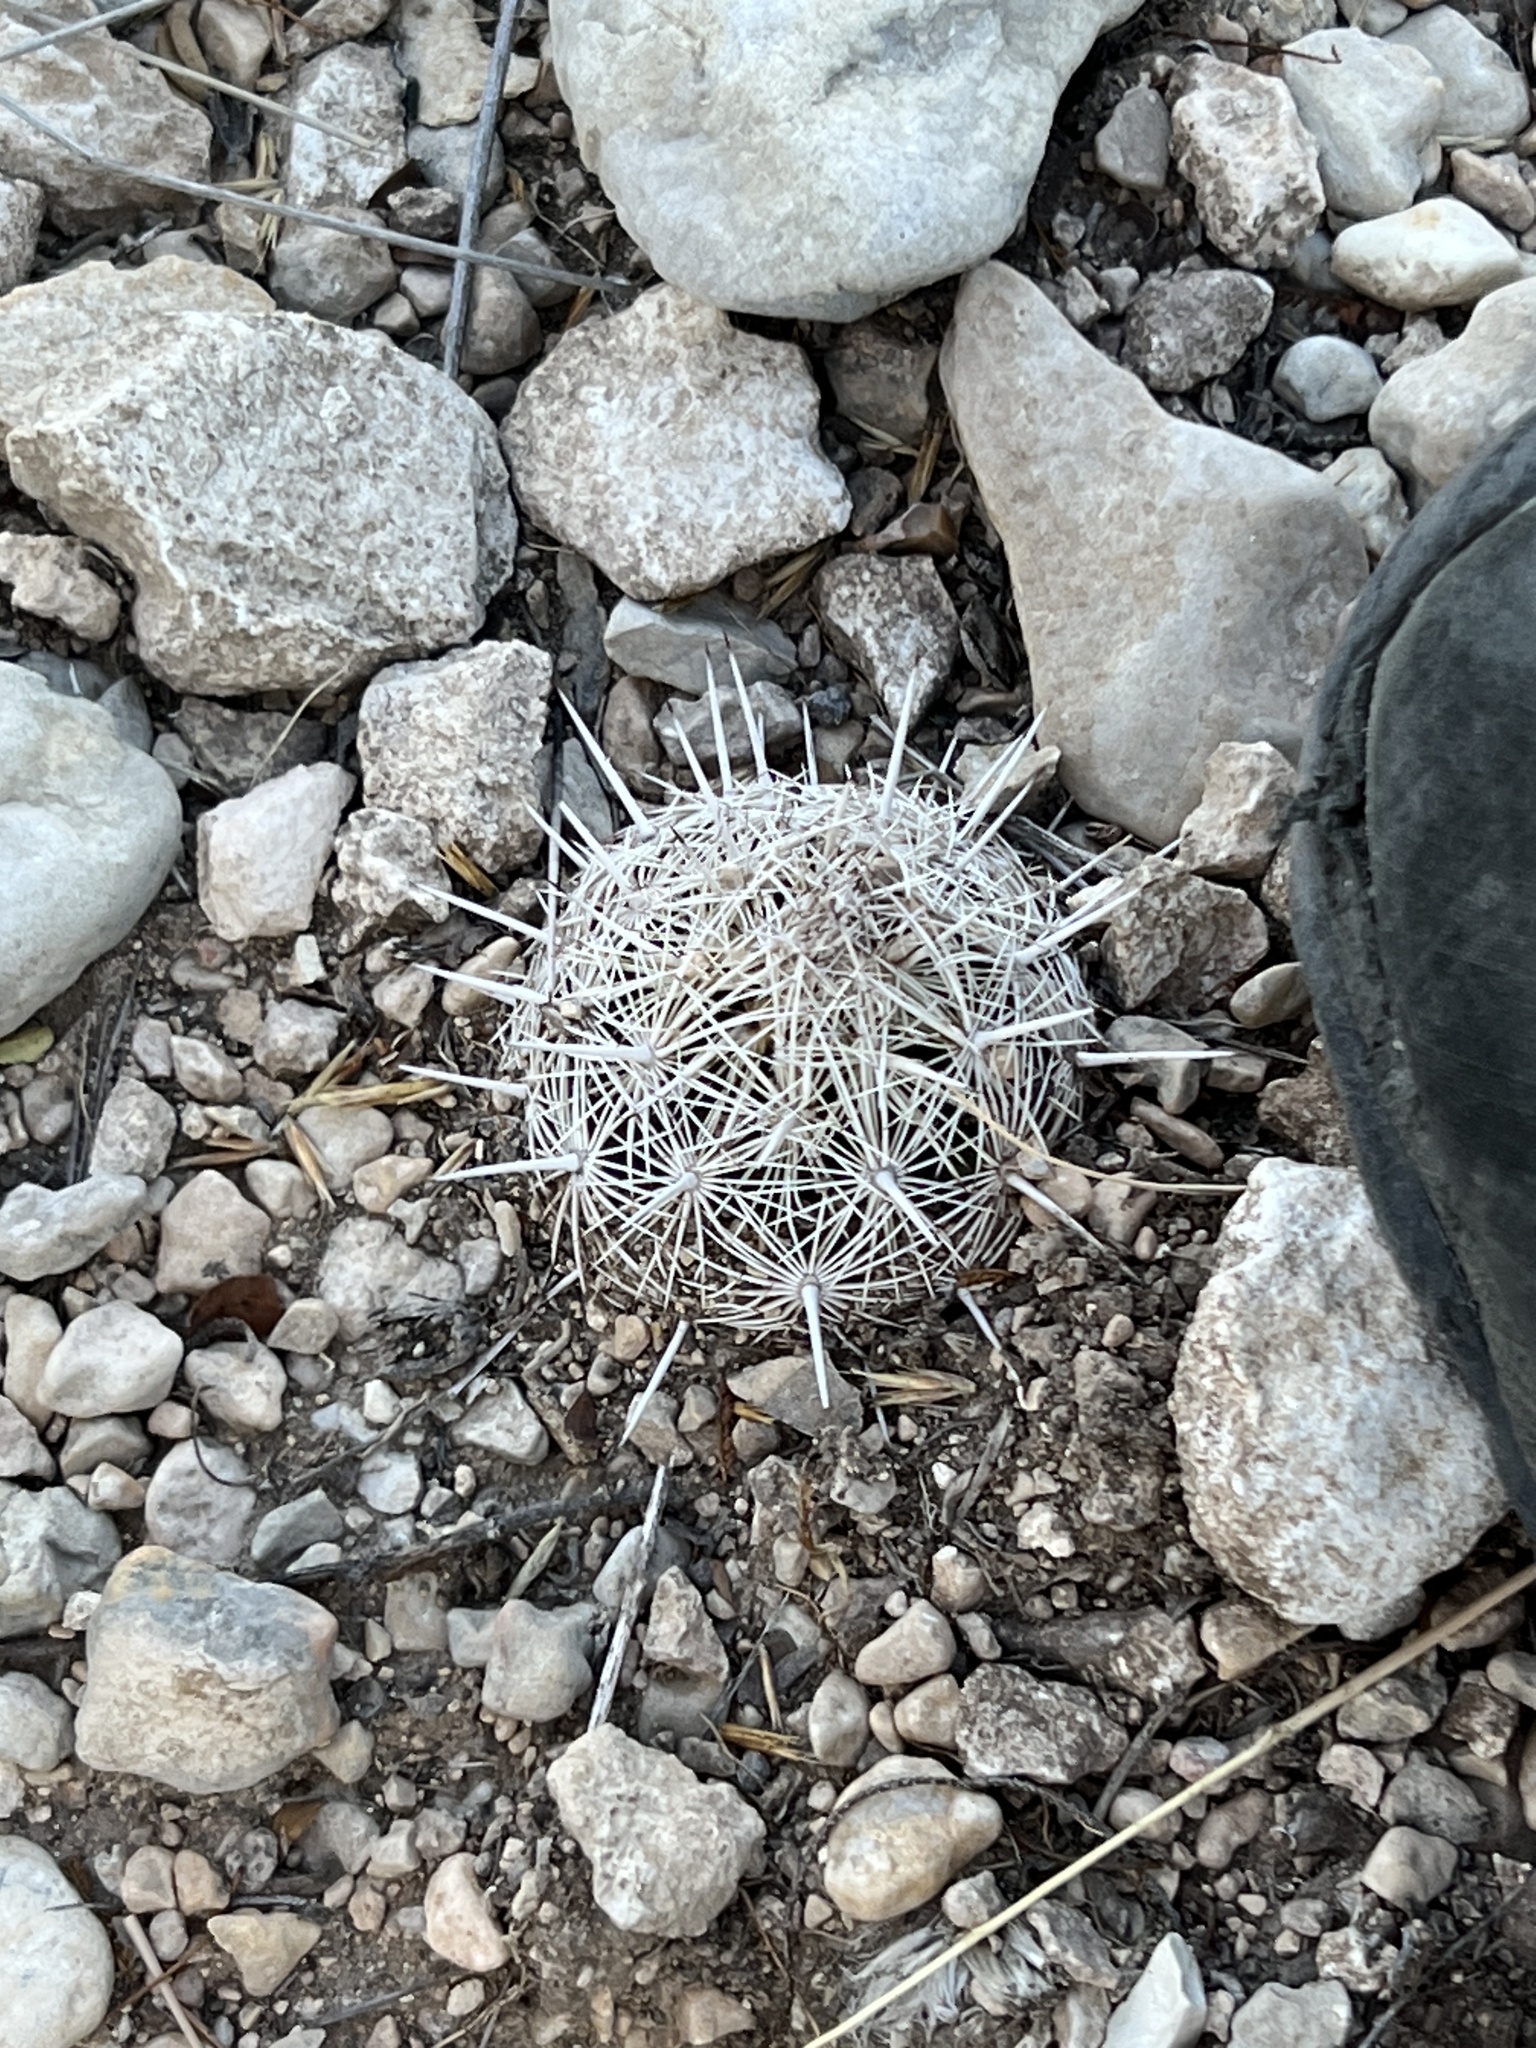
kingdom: Plantae
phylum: Tracheophyta
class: Magnoliopsida
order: Caryophyllales
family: Cactaceae
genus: Coryphantha
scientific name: Coryphantha echinus
